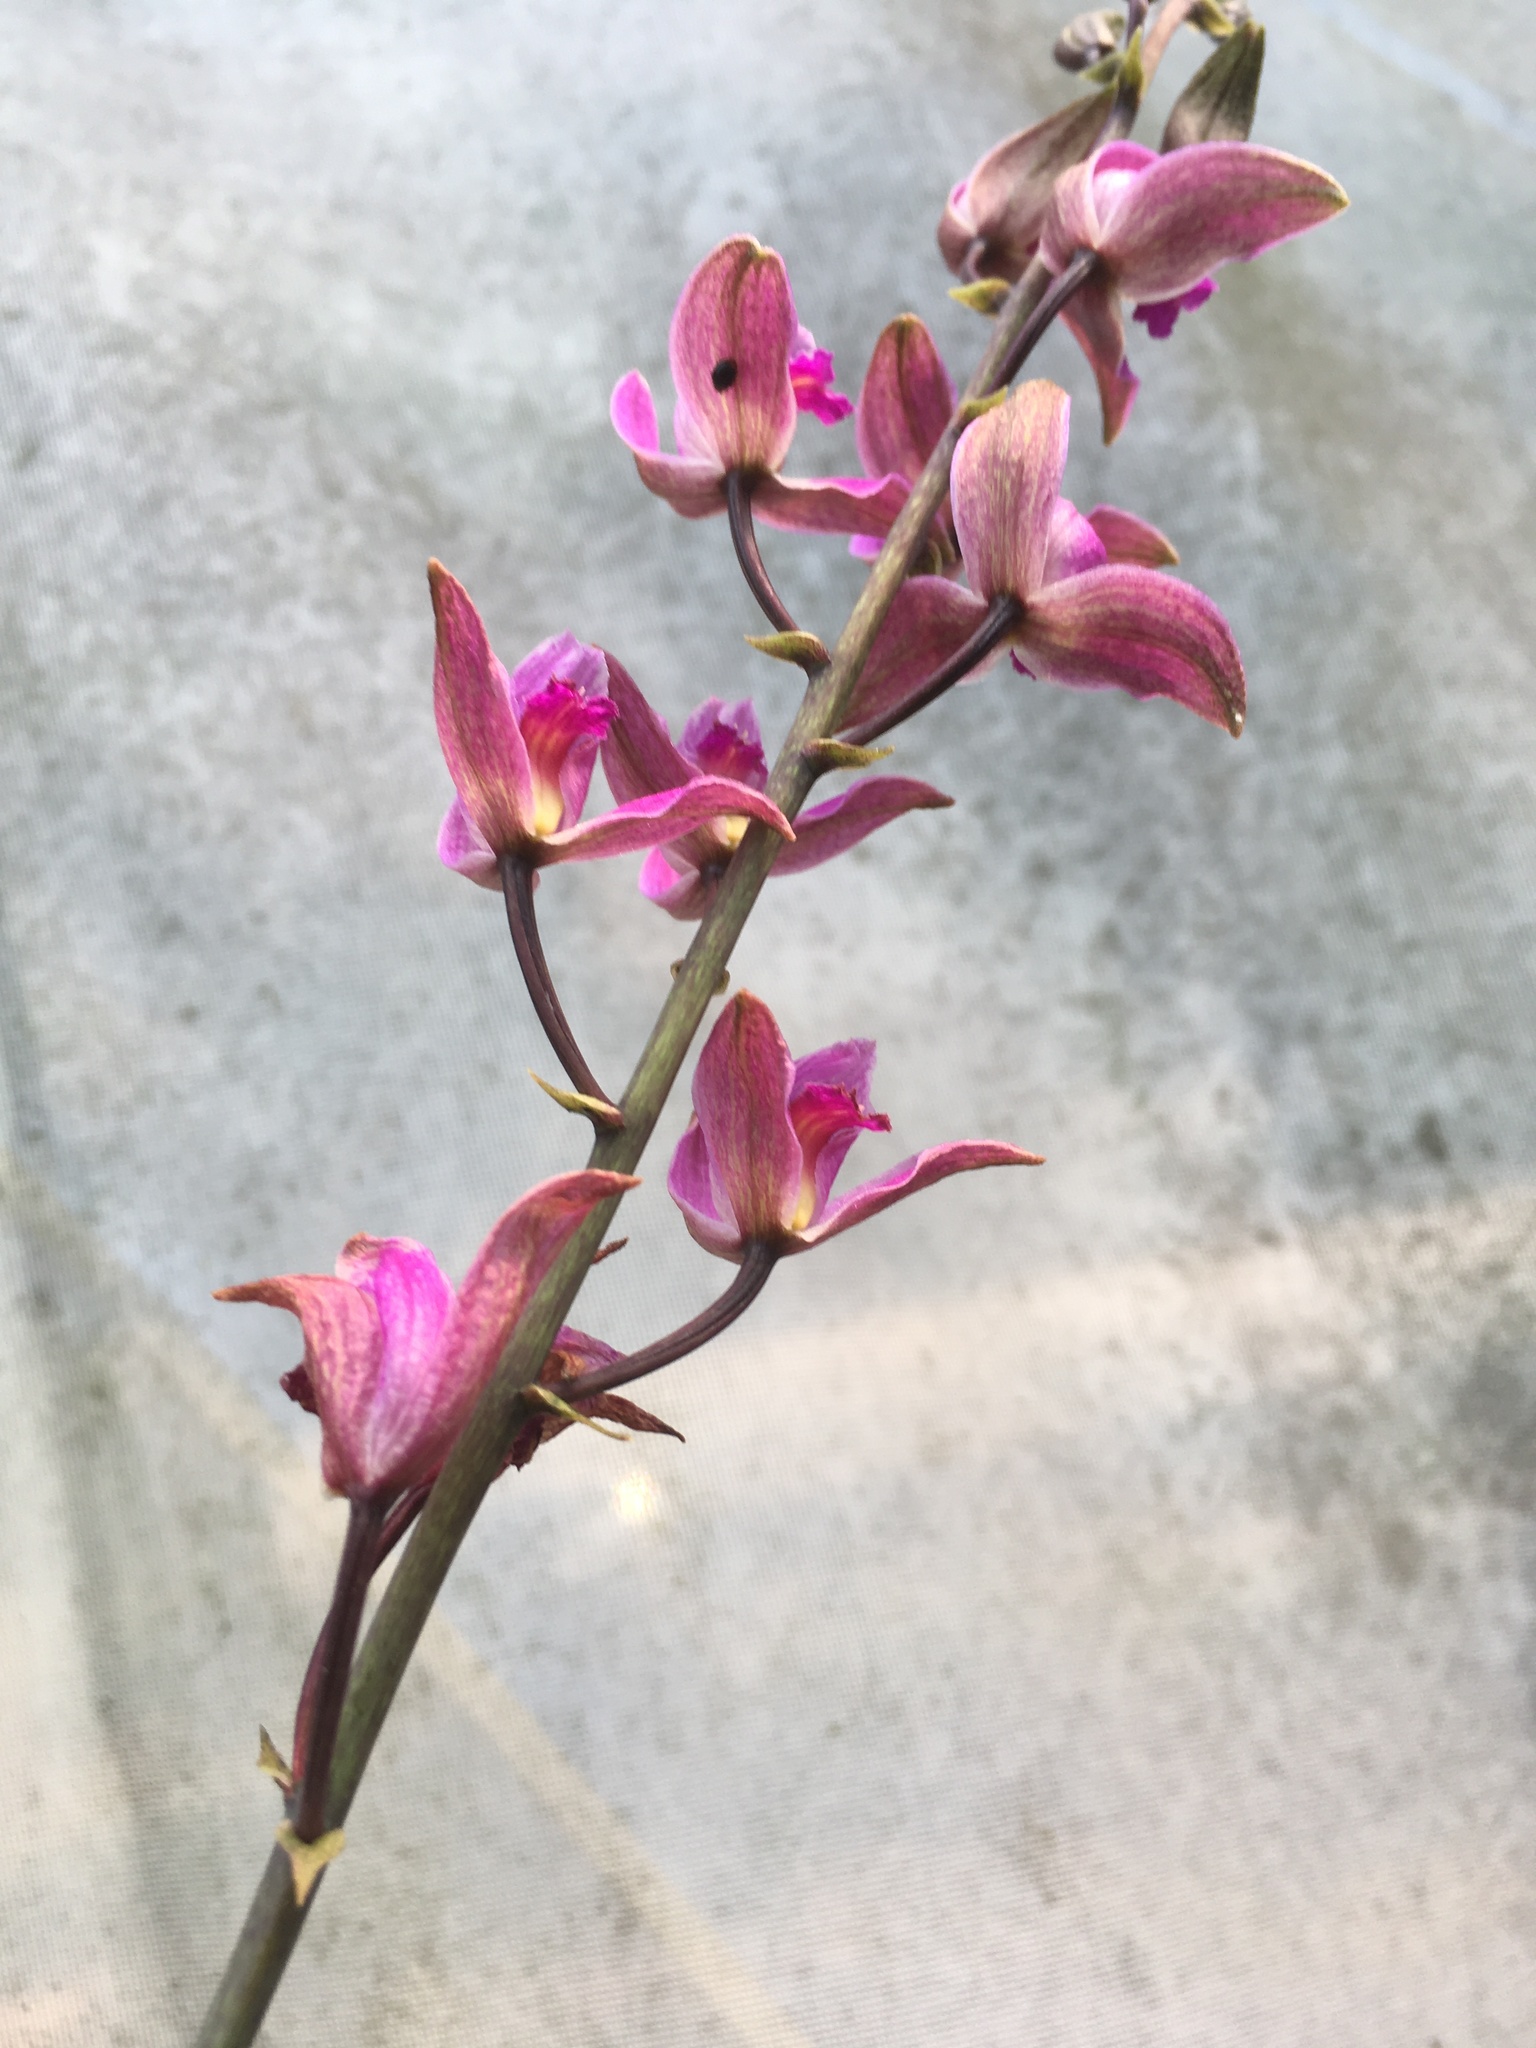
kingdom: Plantae
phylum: Tracheophyta
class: Liliopsida
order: Asparagales
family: Orchidaceae
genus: Bletia
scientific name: Bletia purpurea
